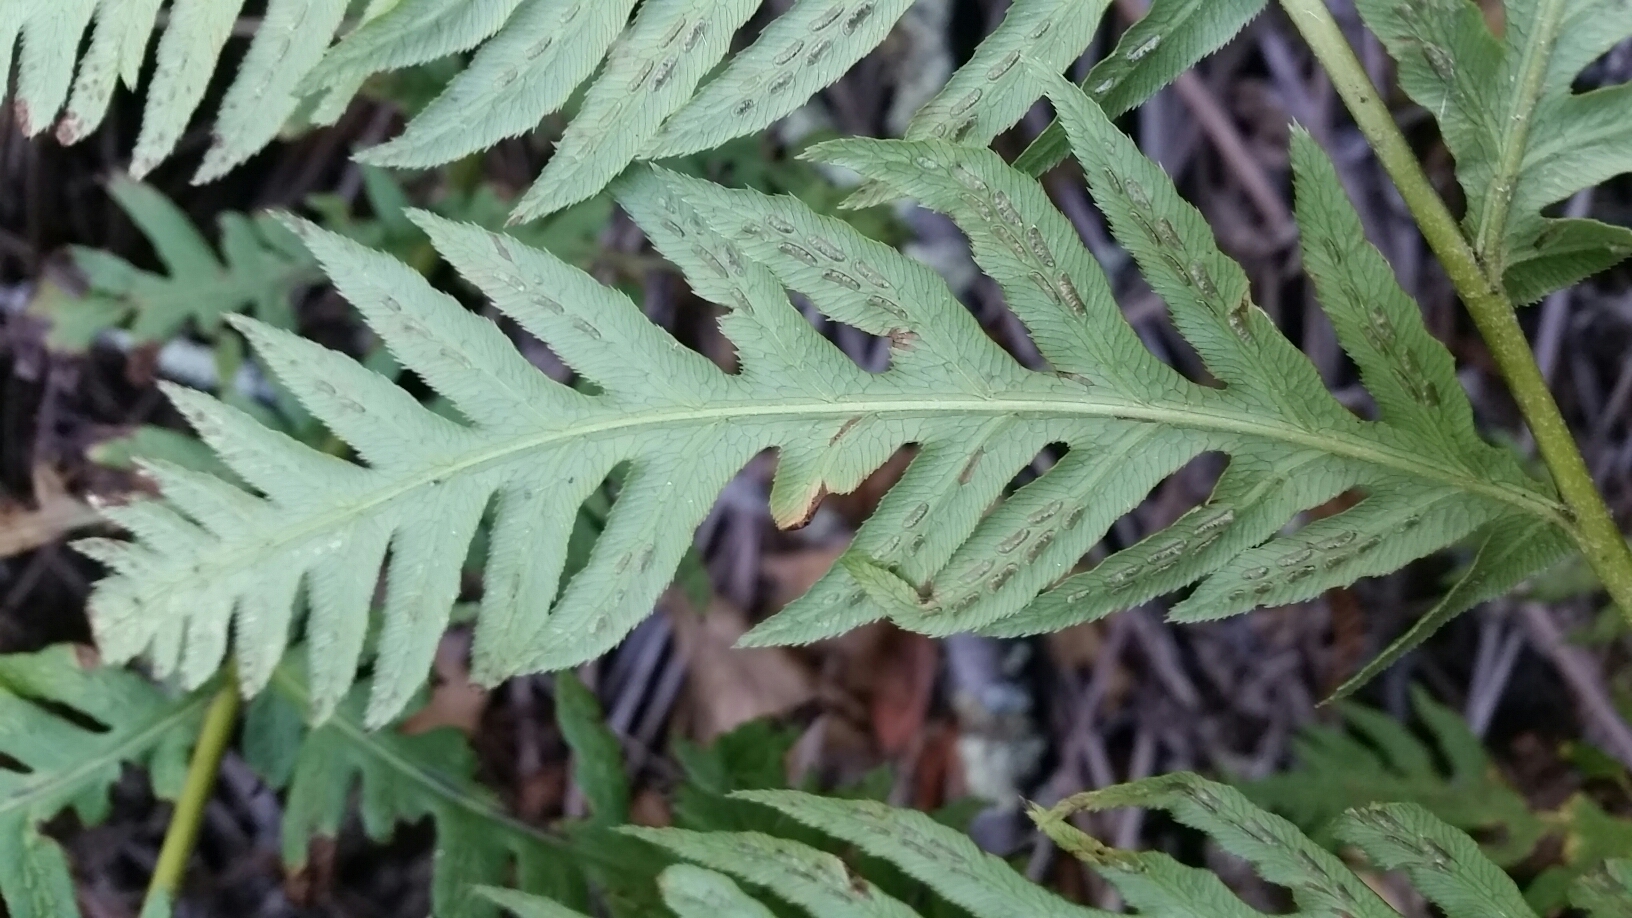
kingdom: Plantae
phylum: Tracheophyta
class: Polypodiopsida
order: Polypodiales
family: Blechnaceae
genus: Woodwardia
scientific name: Woodwardia fimbriata
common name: Giant chain fern
